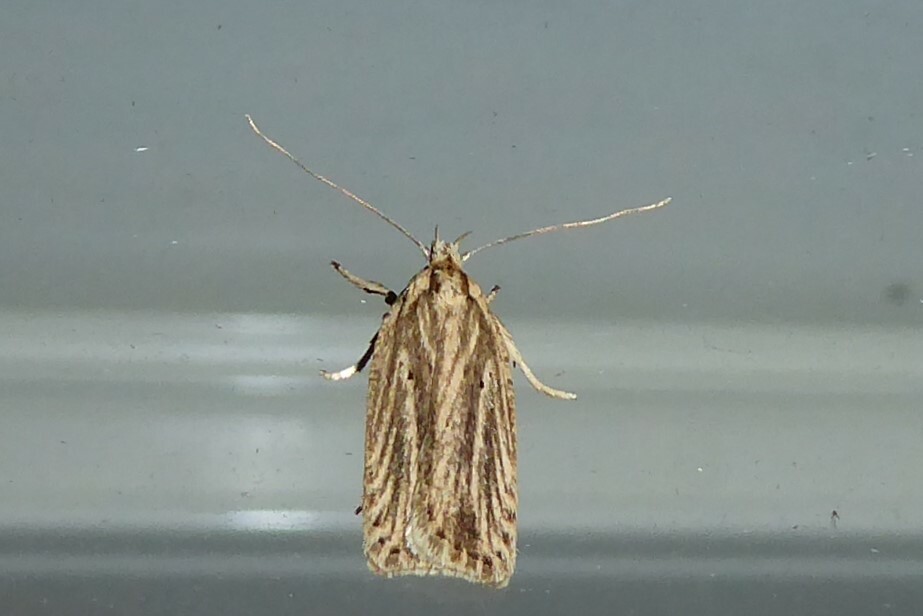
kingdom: Animalia
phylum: Arthropoda
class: Insecta
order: Lepidoptera
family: Depressariidae
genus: Agonopterix
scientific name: Agonopterix
